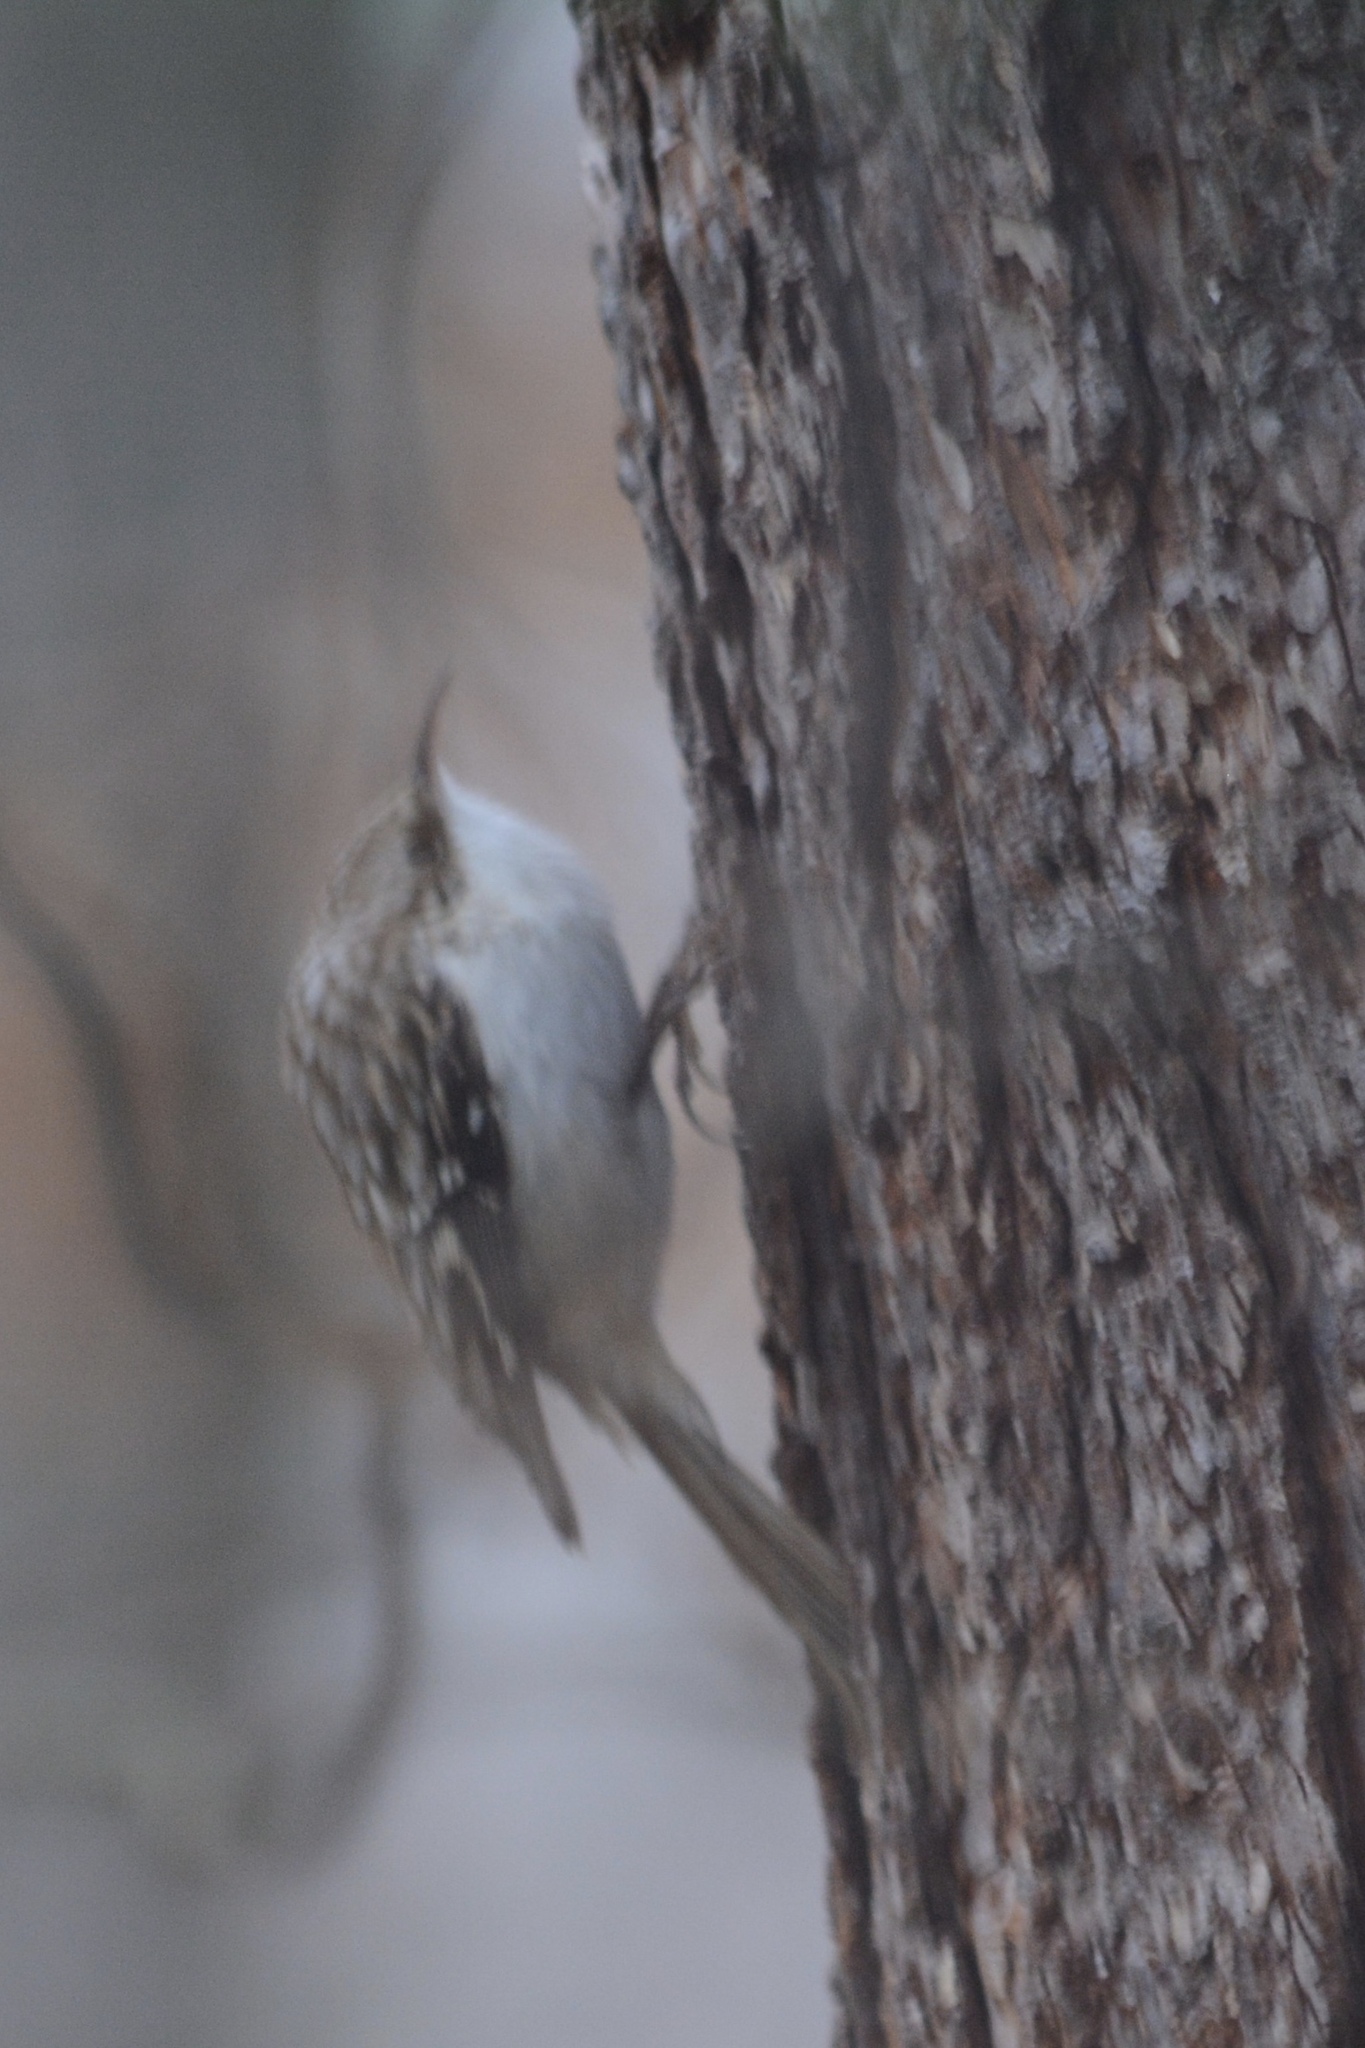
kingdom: Animalia
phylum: Chordata
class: Aves
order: Passeriformes
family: Certhiidae
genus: Certhia
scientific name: Certhia americana
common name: Brown creeper
